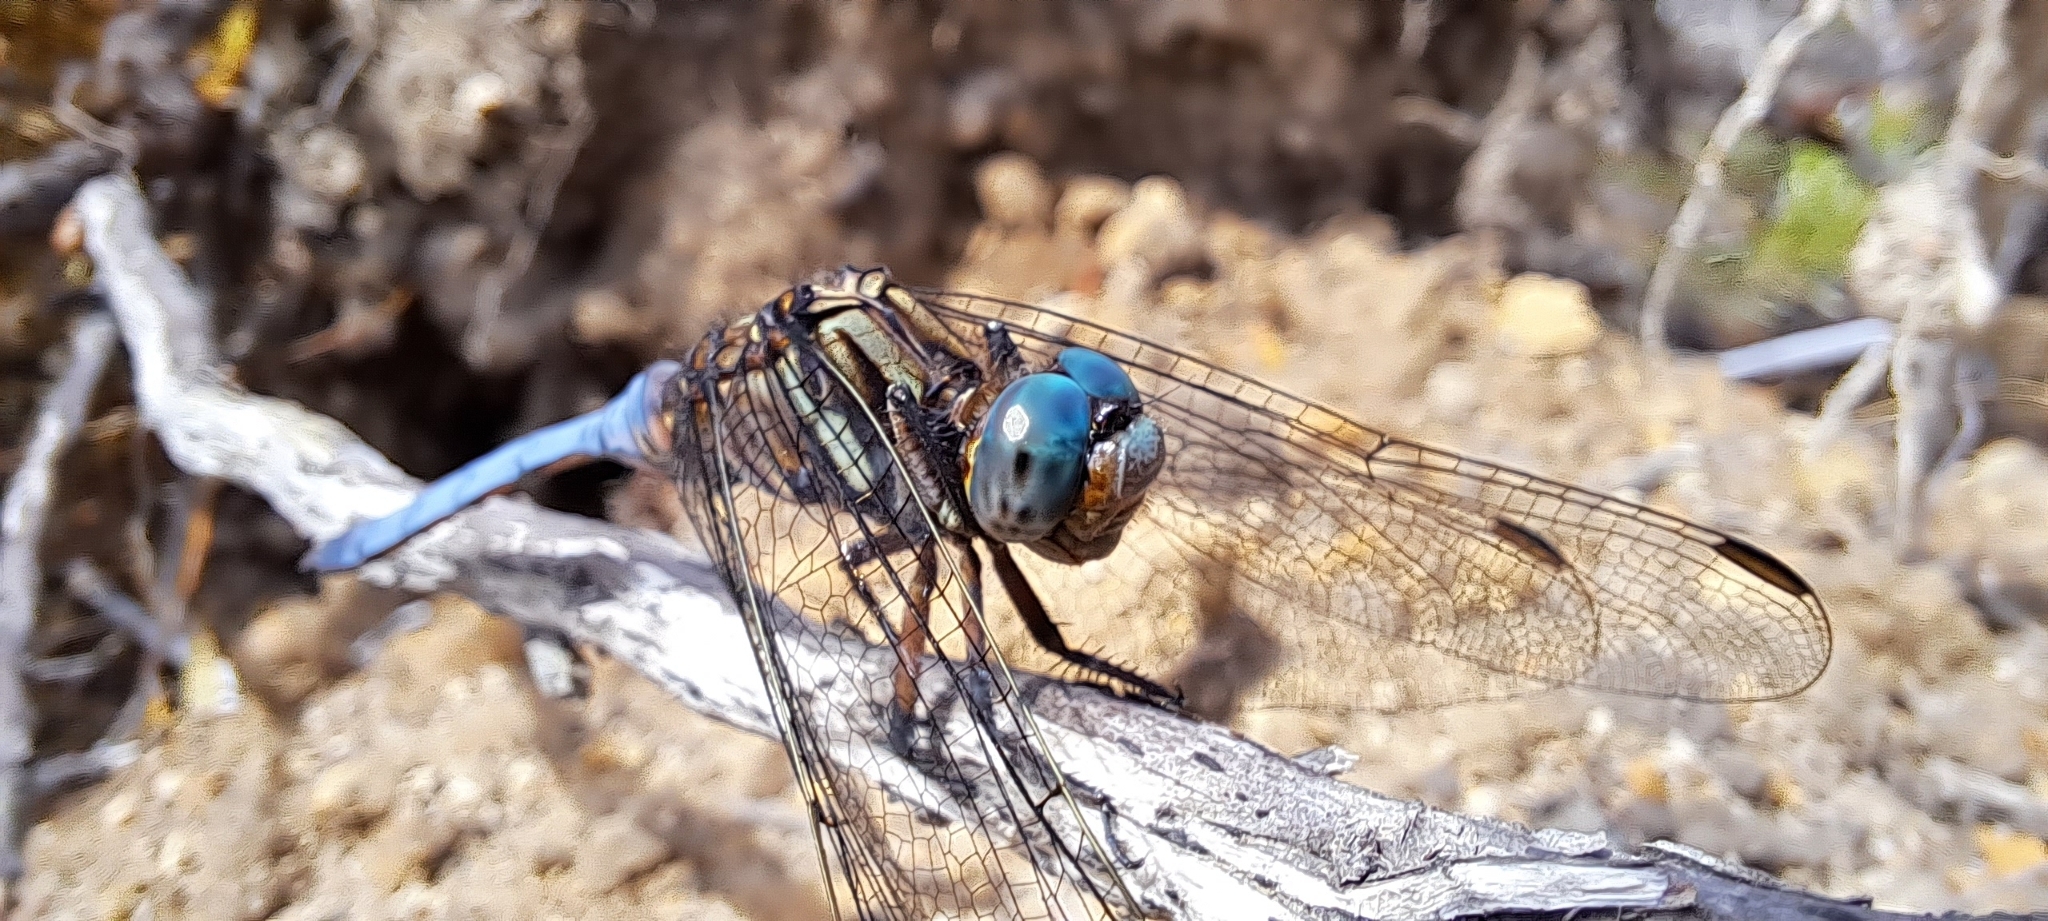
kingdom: Animalia
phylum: Arthropoda
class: Insecta
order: Odonata
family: Libellulidae
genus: Orthetrum
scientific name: Orthetrum julia
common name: Julia skimmer
